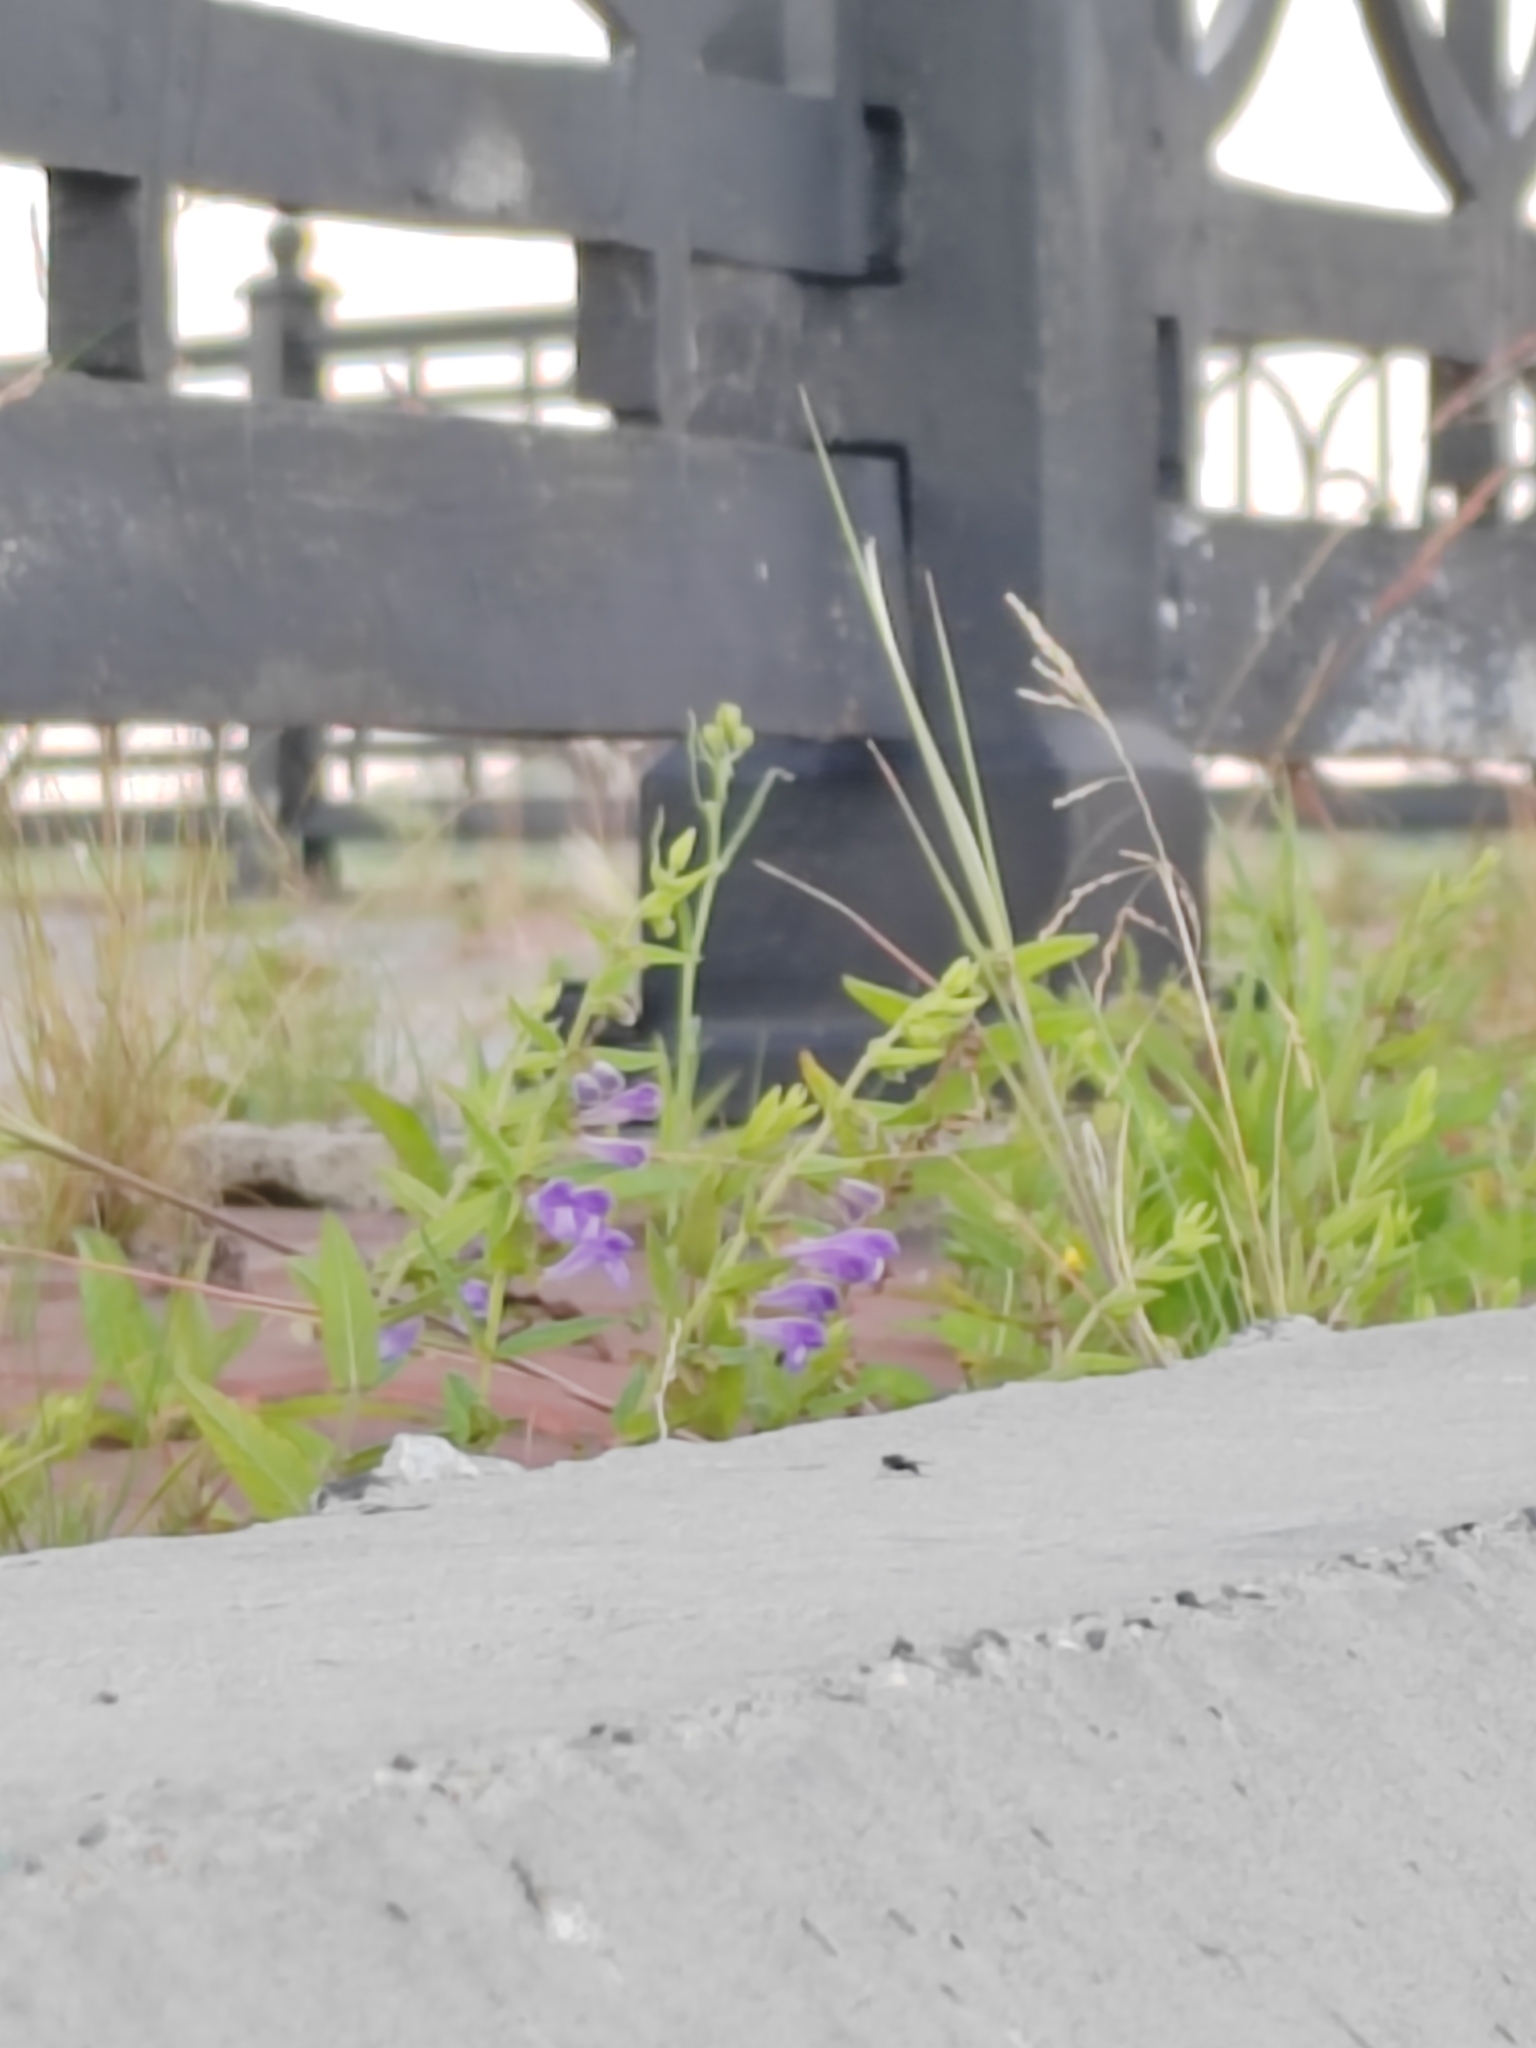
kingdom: Plantae
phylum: Tracheophyta
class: Magnoliopsida
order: Lamiales
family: Lamiaceae
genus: Scutellaria
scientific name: Scutellaria galericulata
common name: Skullcap
